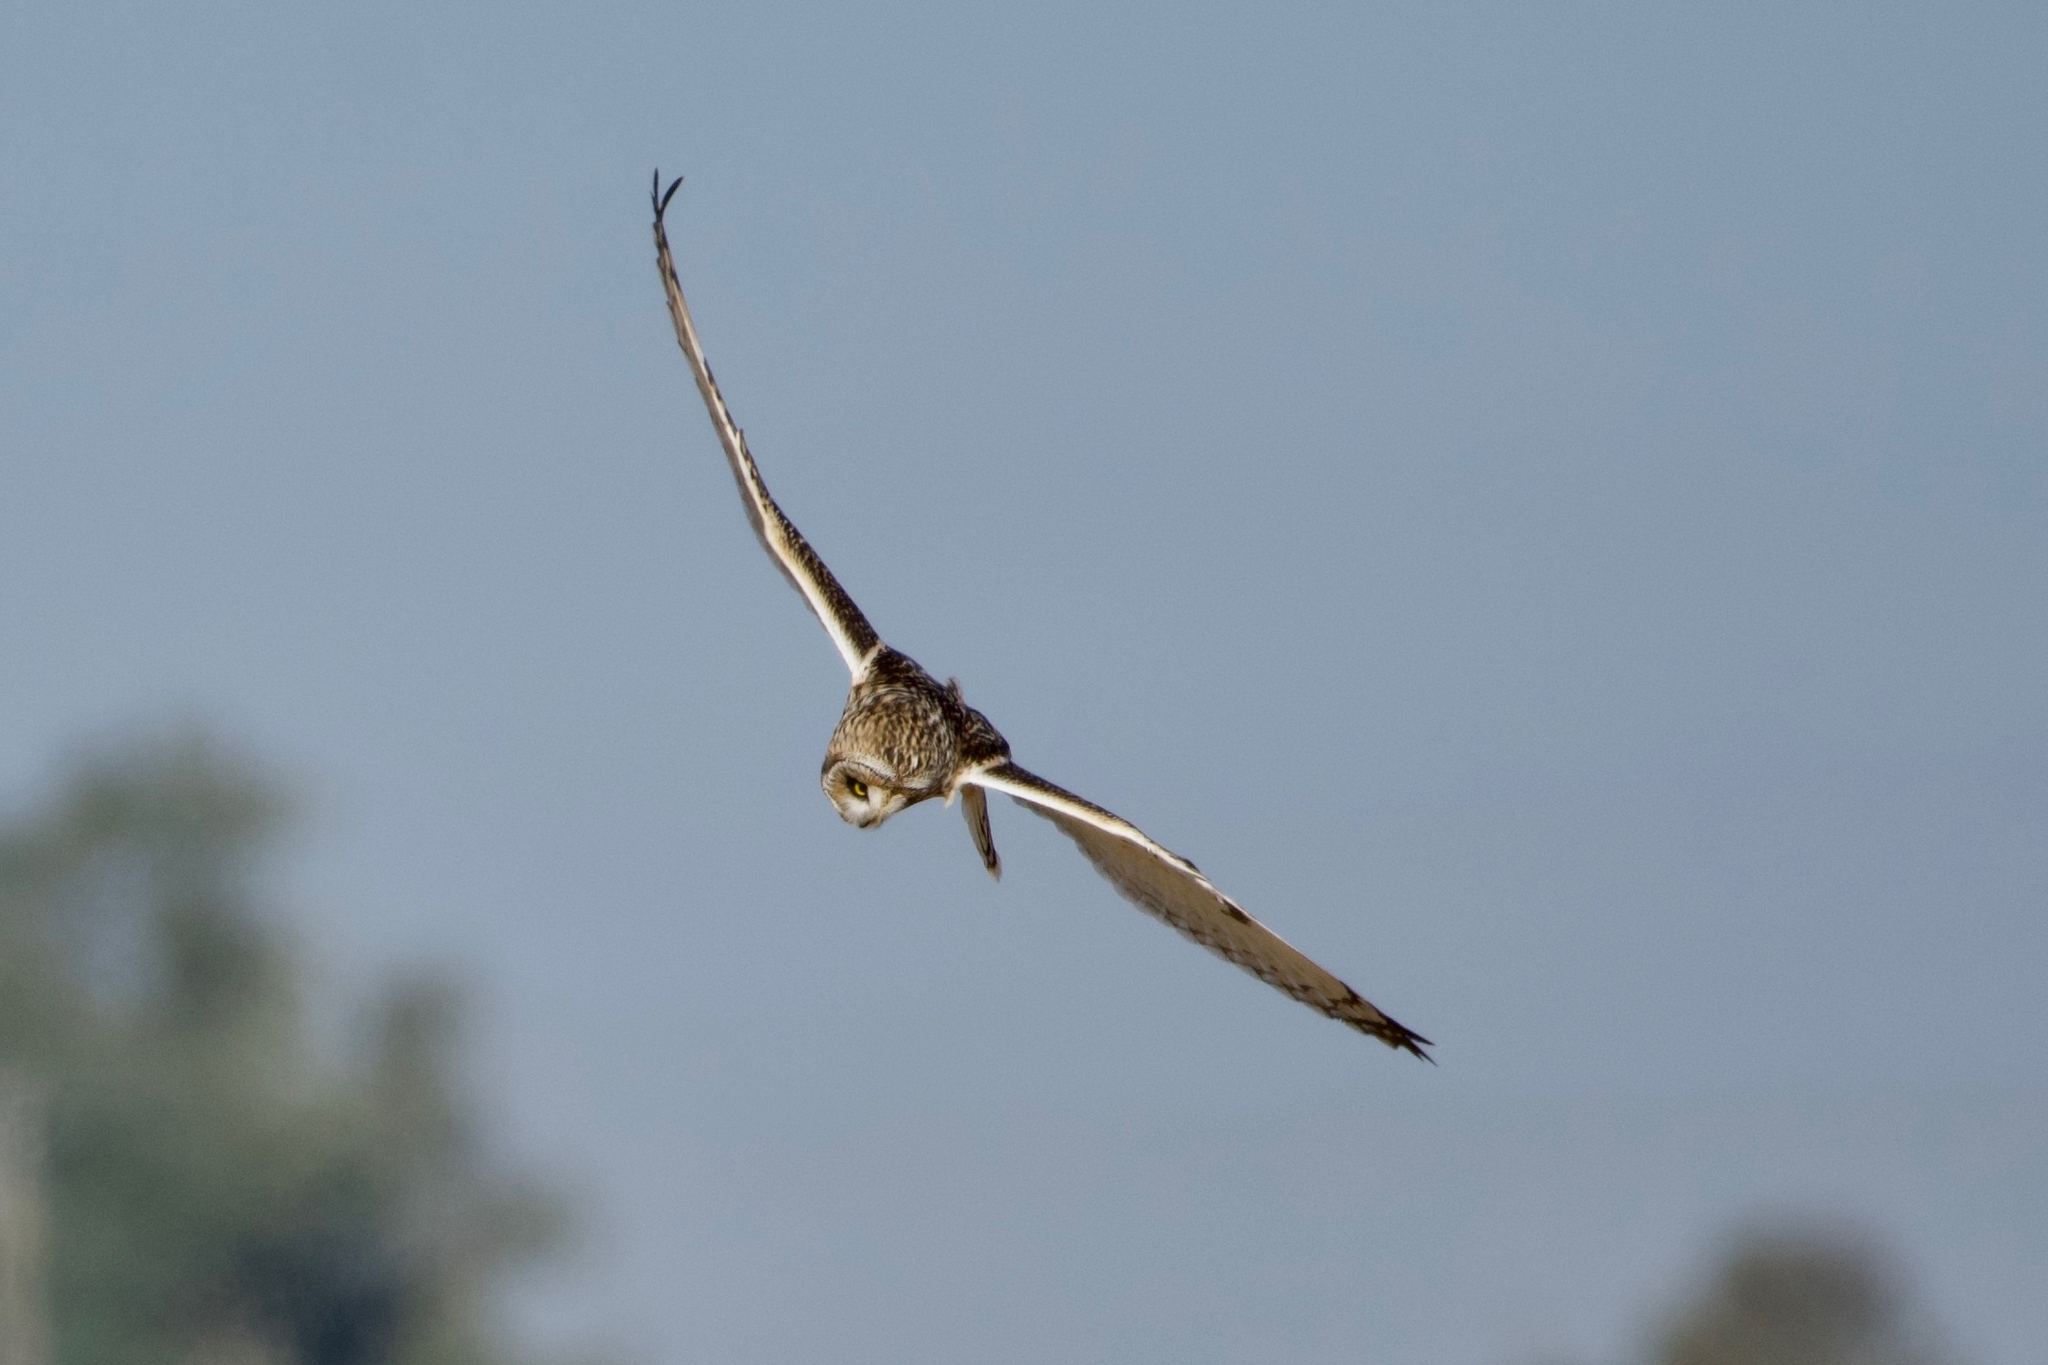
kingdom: Animalia
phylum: Chordata
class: Aves
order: Strigiformes
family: Strigidae
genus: Asio
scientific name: Asio flammeus
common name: Short-eared owl
